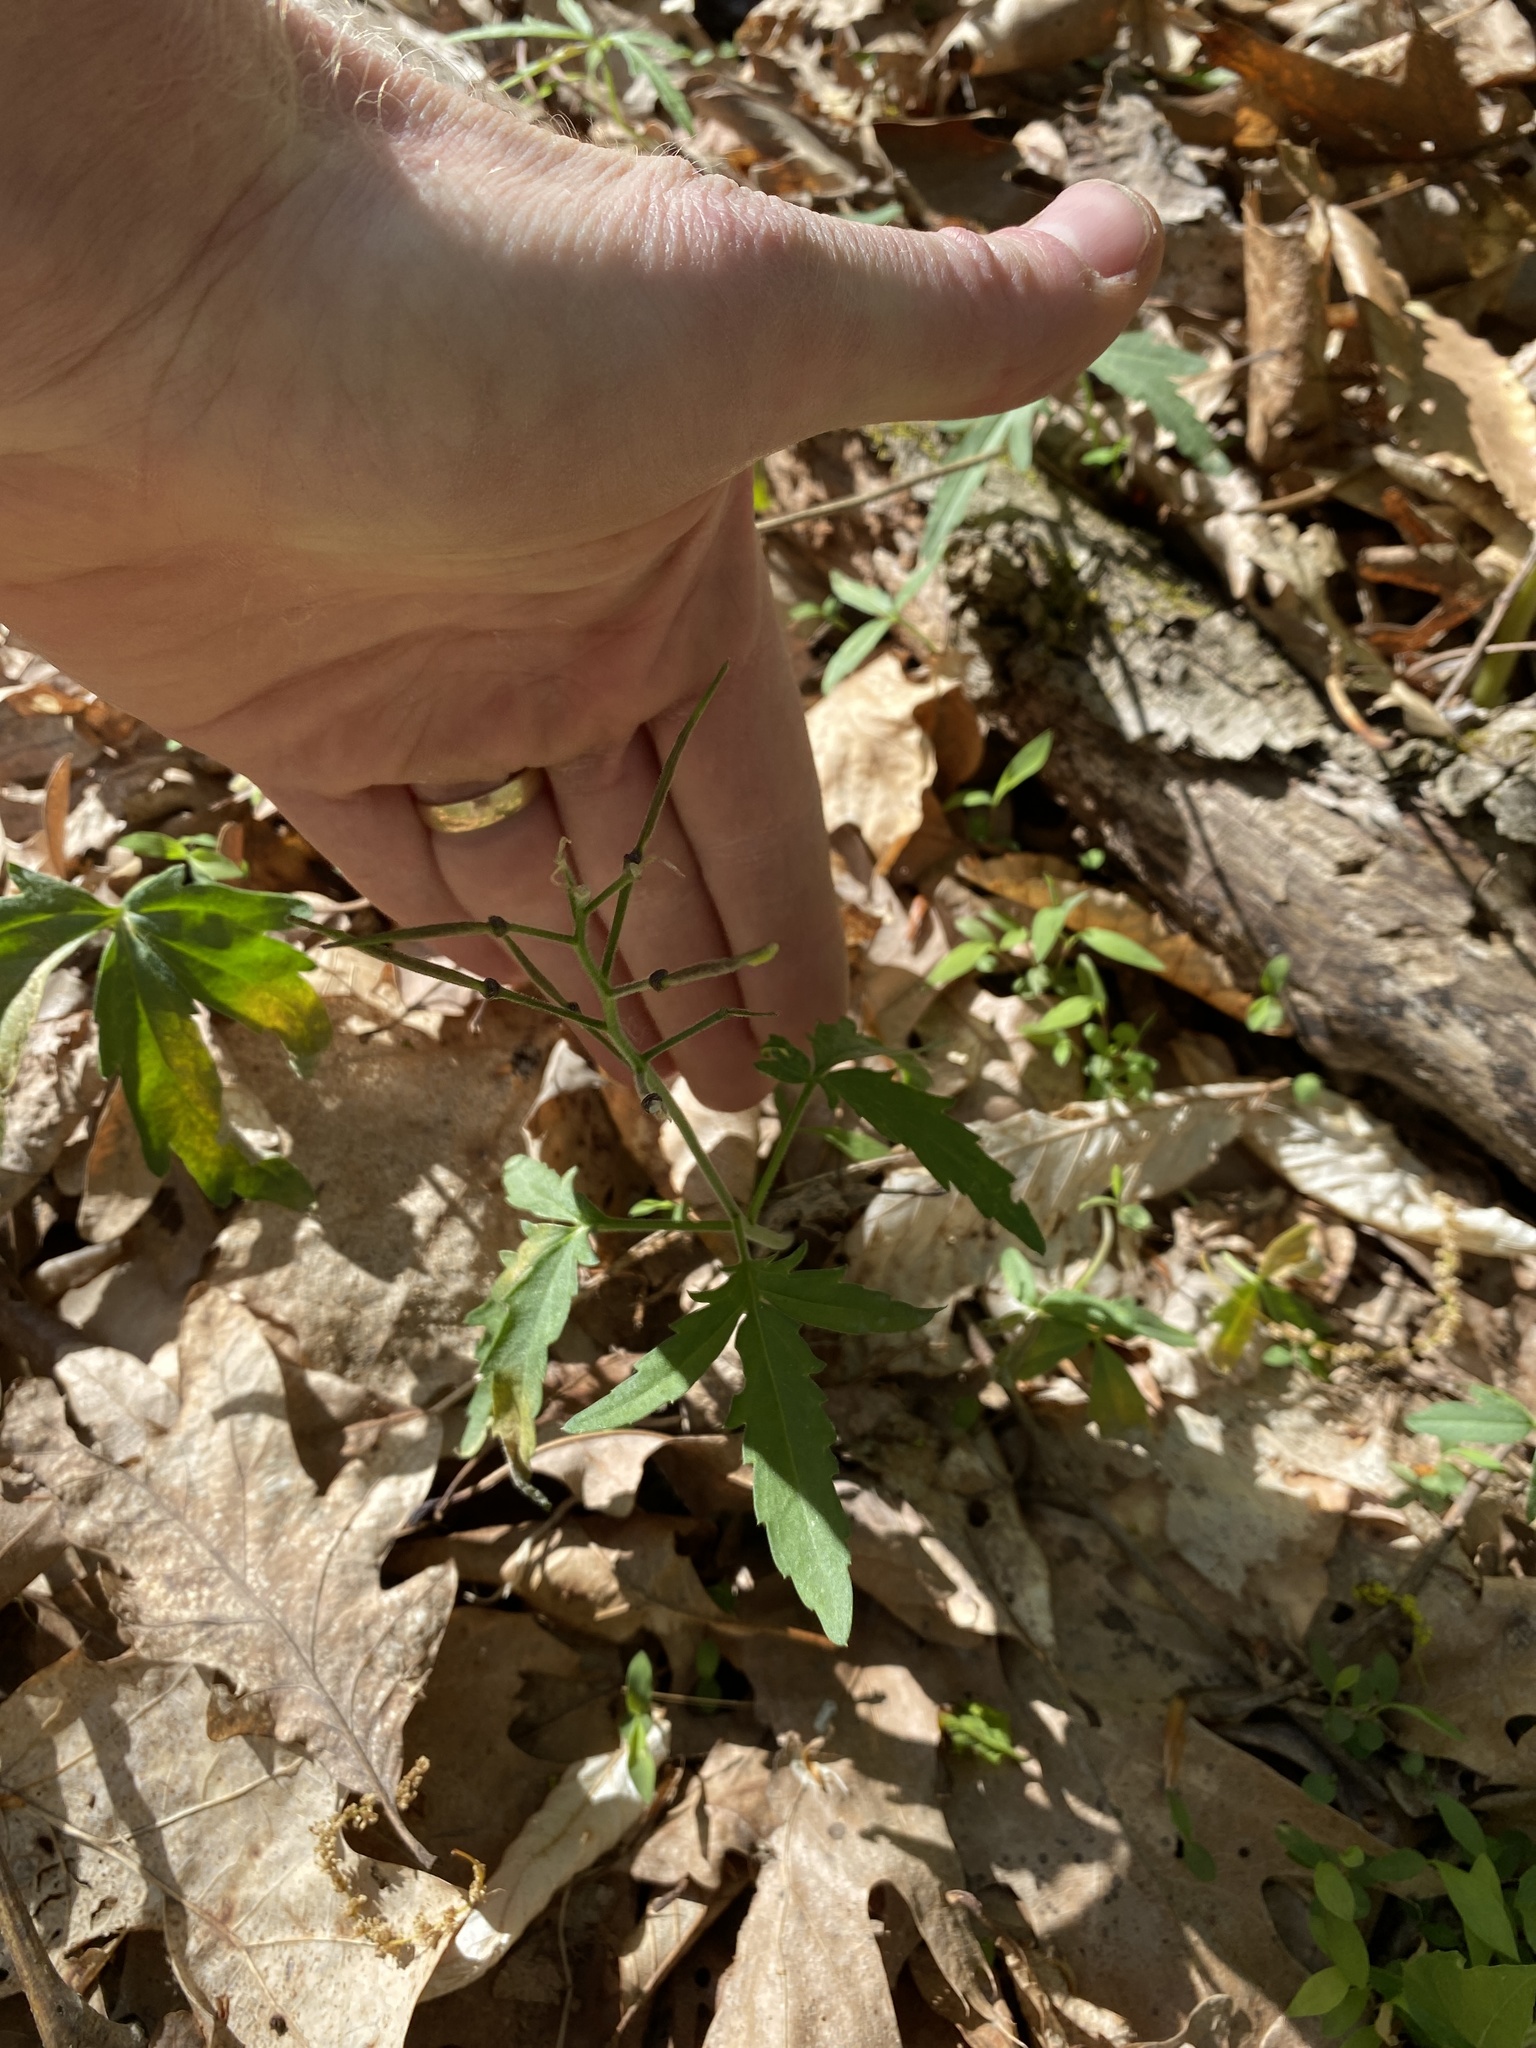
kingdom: Plantae
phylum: Tracheophyta
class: Magnoliopsida
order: Brassicales
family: Brassicaceae
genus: Cardamine
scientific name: Cardamine concatenata
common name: Cut-leaf toothcup
